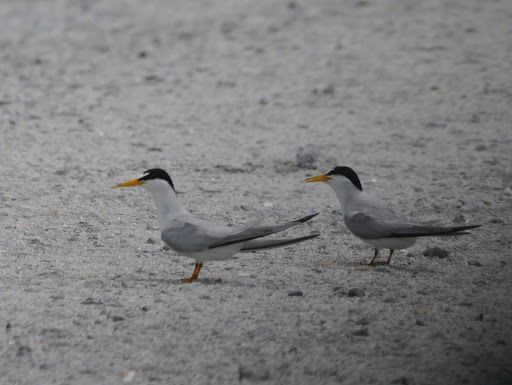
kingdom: Animalia
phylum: Chordata
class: Aves
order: Charadriiformes
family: Laridae
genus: Sternula
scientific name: Sternula antillarum
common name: Least tern
